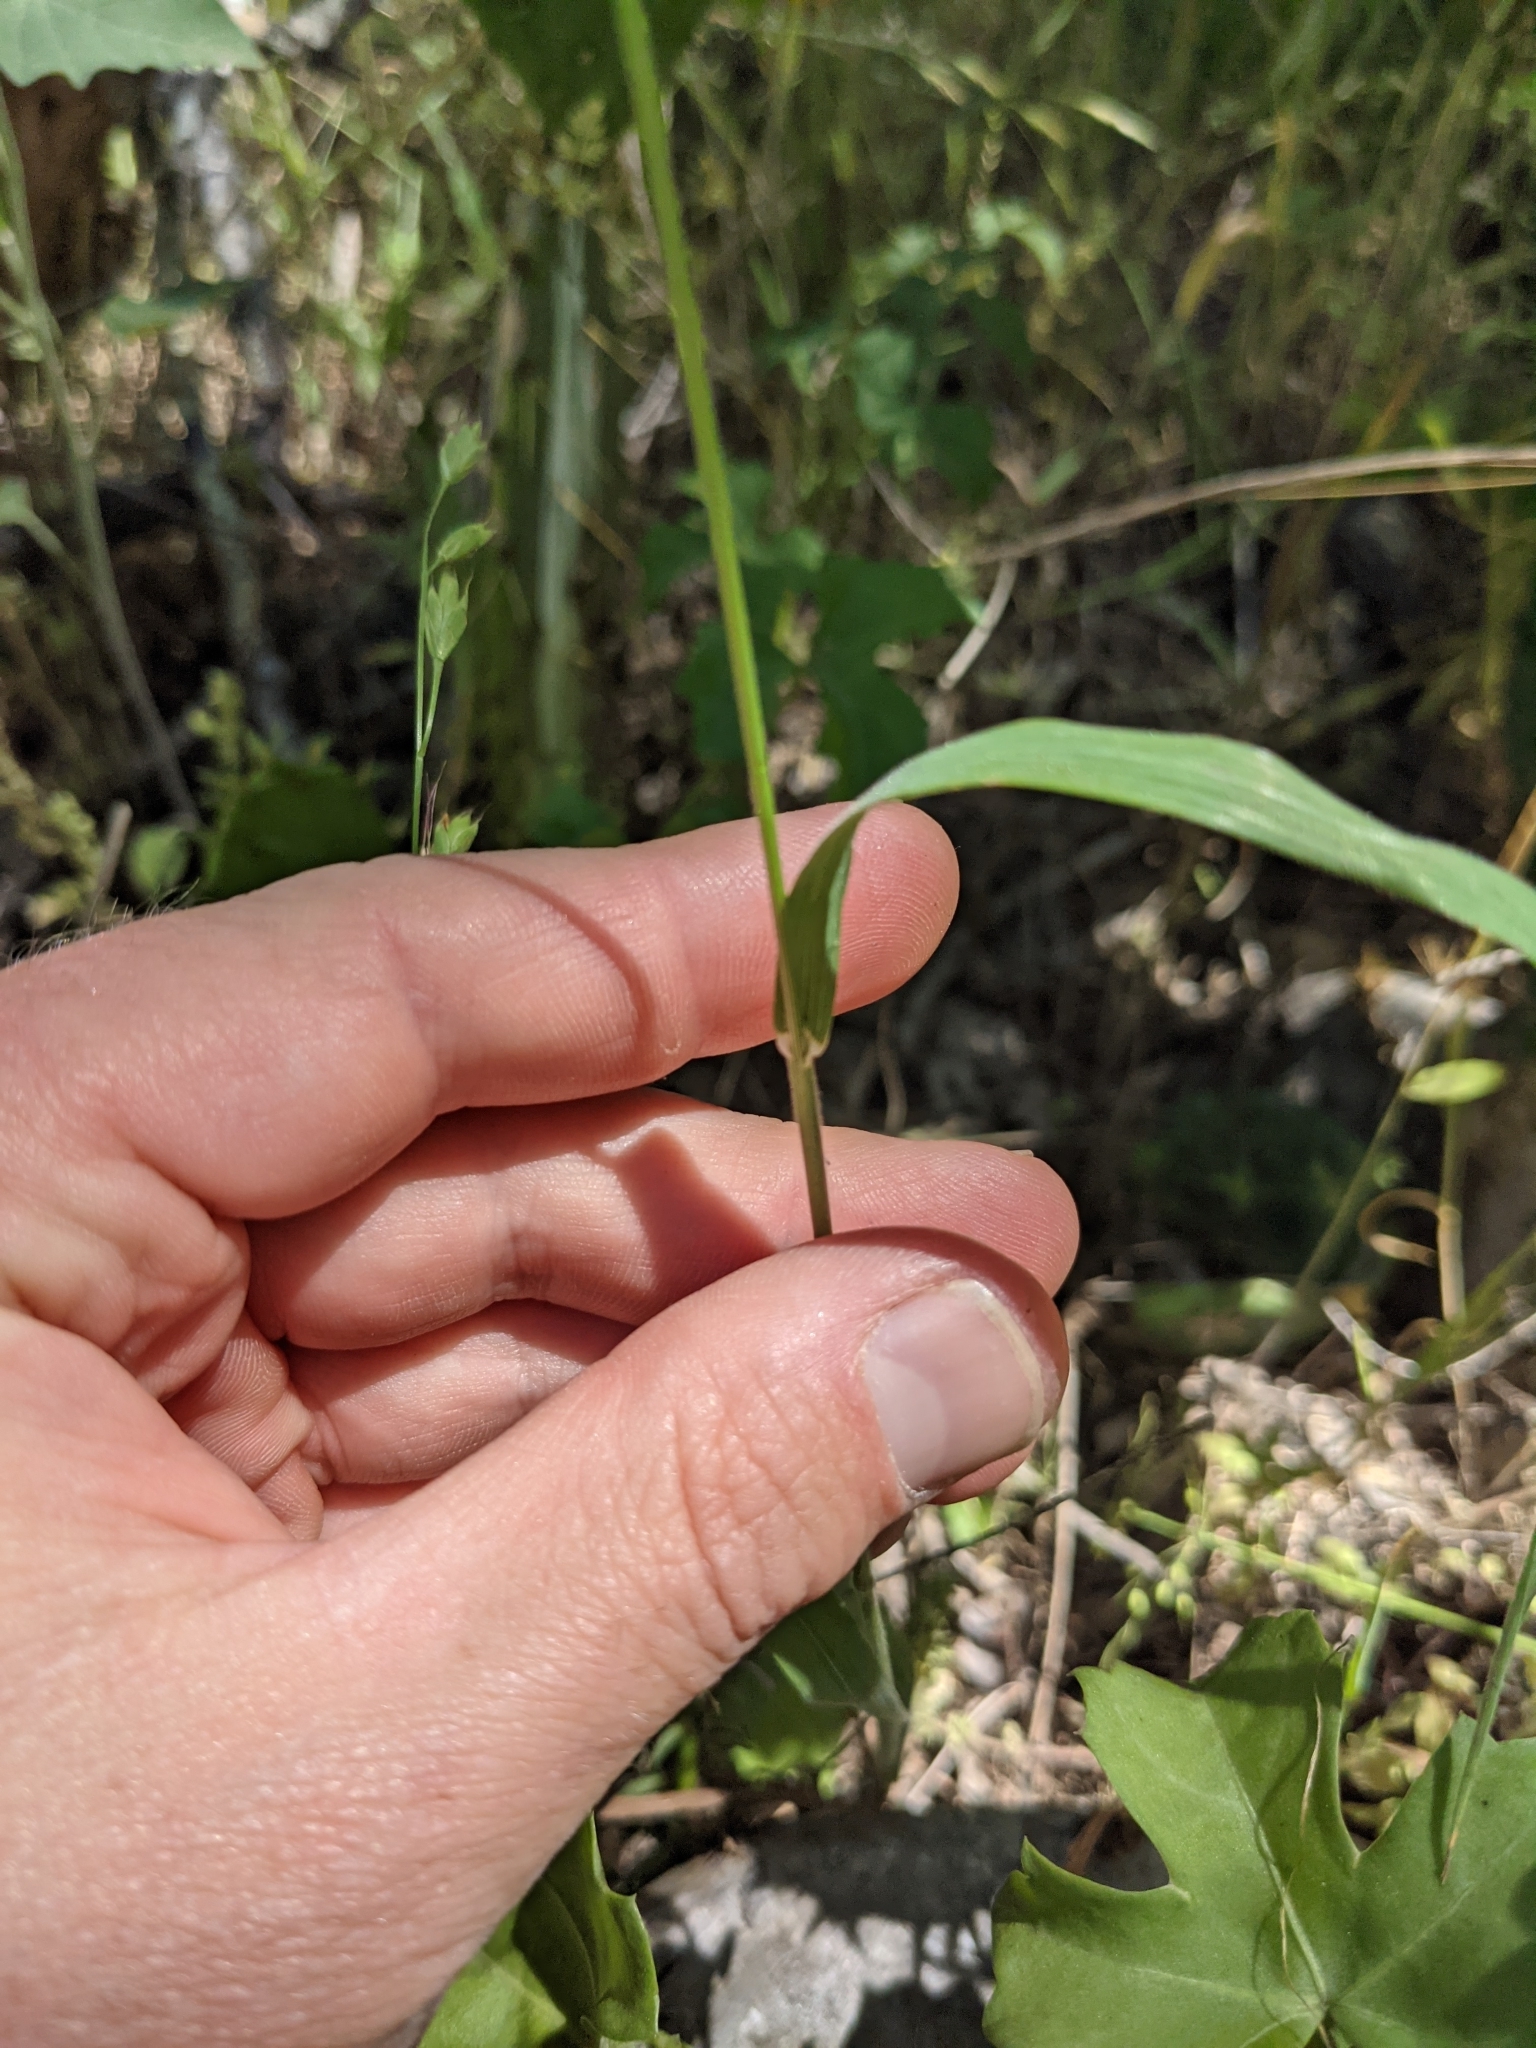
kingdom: Plantae
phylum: Tracheophyta
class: Liliopsida
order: Poales
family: Poaceae
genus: Bromus
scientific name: Bromus texensis
